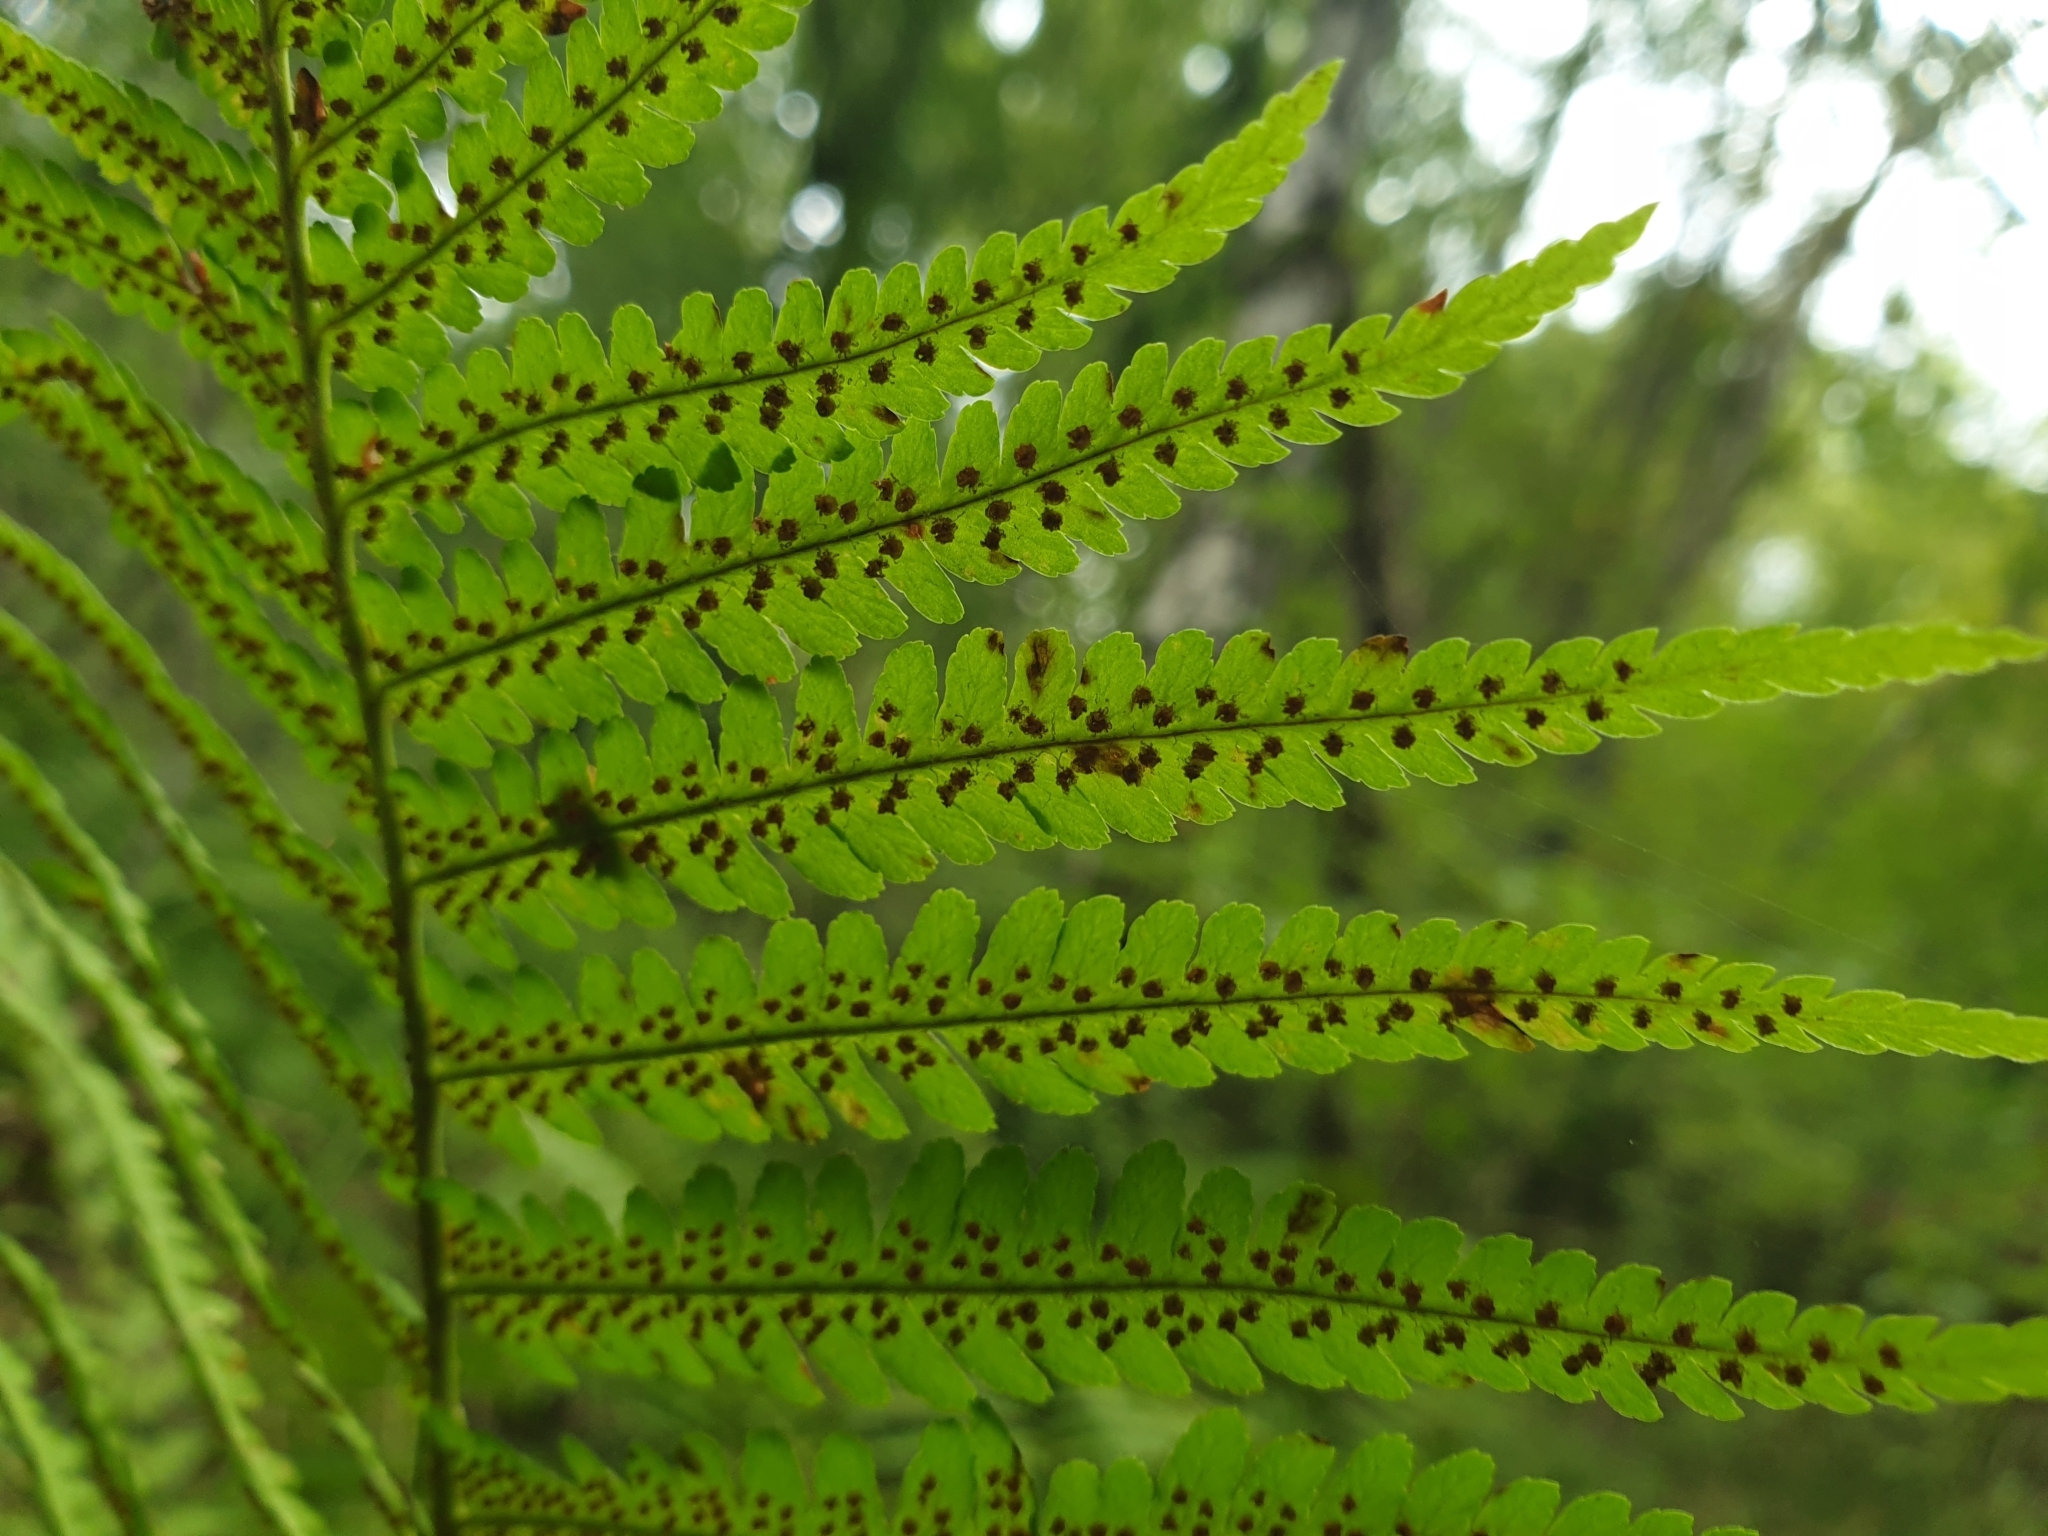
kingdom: Plantae
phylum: Tracheophyta
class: Polypodiopsida
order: Polypodiales
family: Dryopteridaceae
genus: Dryopteris
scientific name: Dryopteris filix-mas
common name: Male fern
